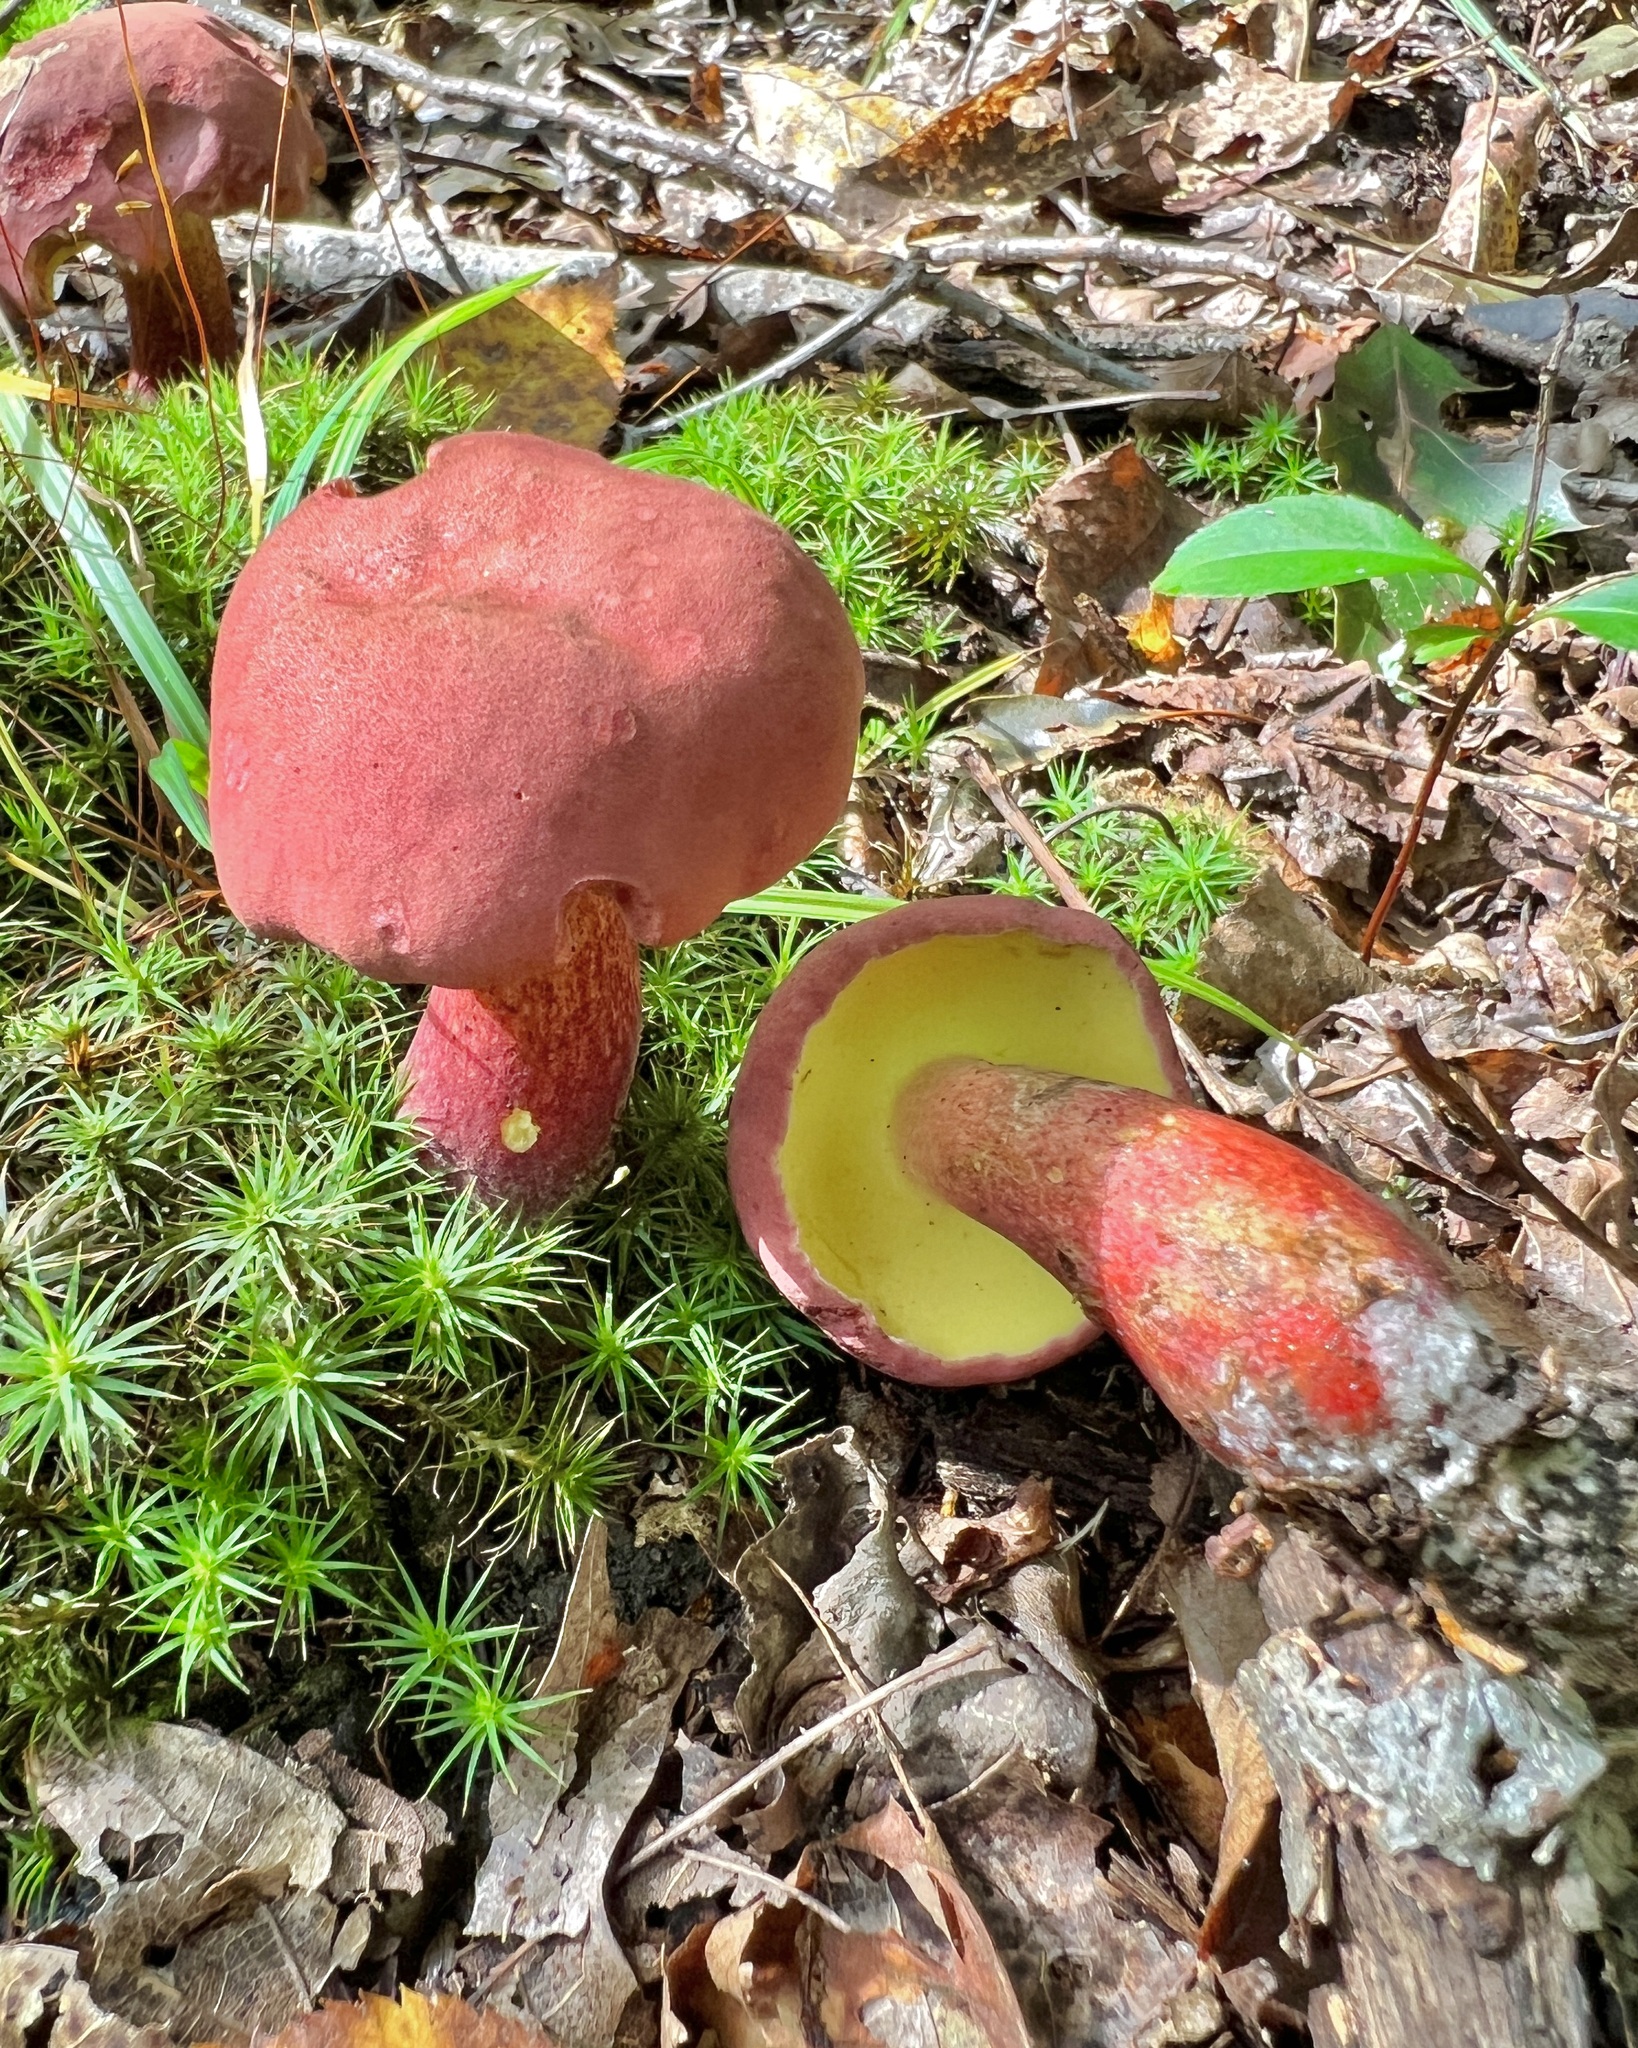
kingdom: Fungi
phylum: Basidiomycota
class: Agaricomycetes
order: Boletales
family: Boletaceae
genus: Baorangia
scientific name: Baorangia bicolor
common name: Two-colored bolete
